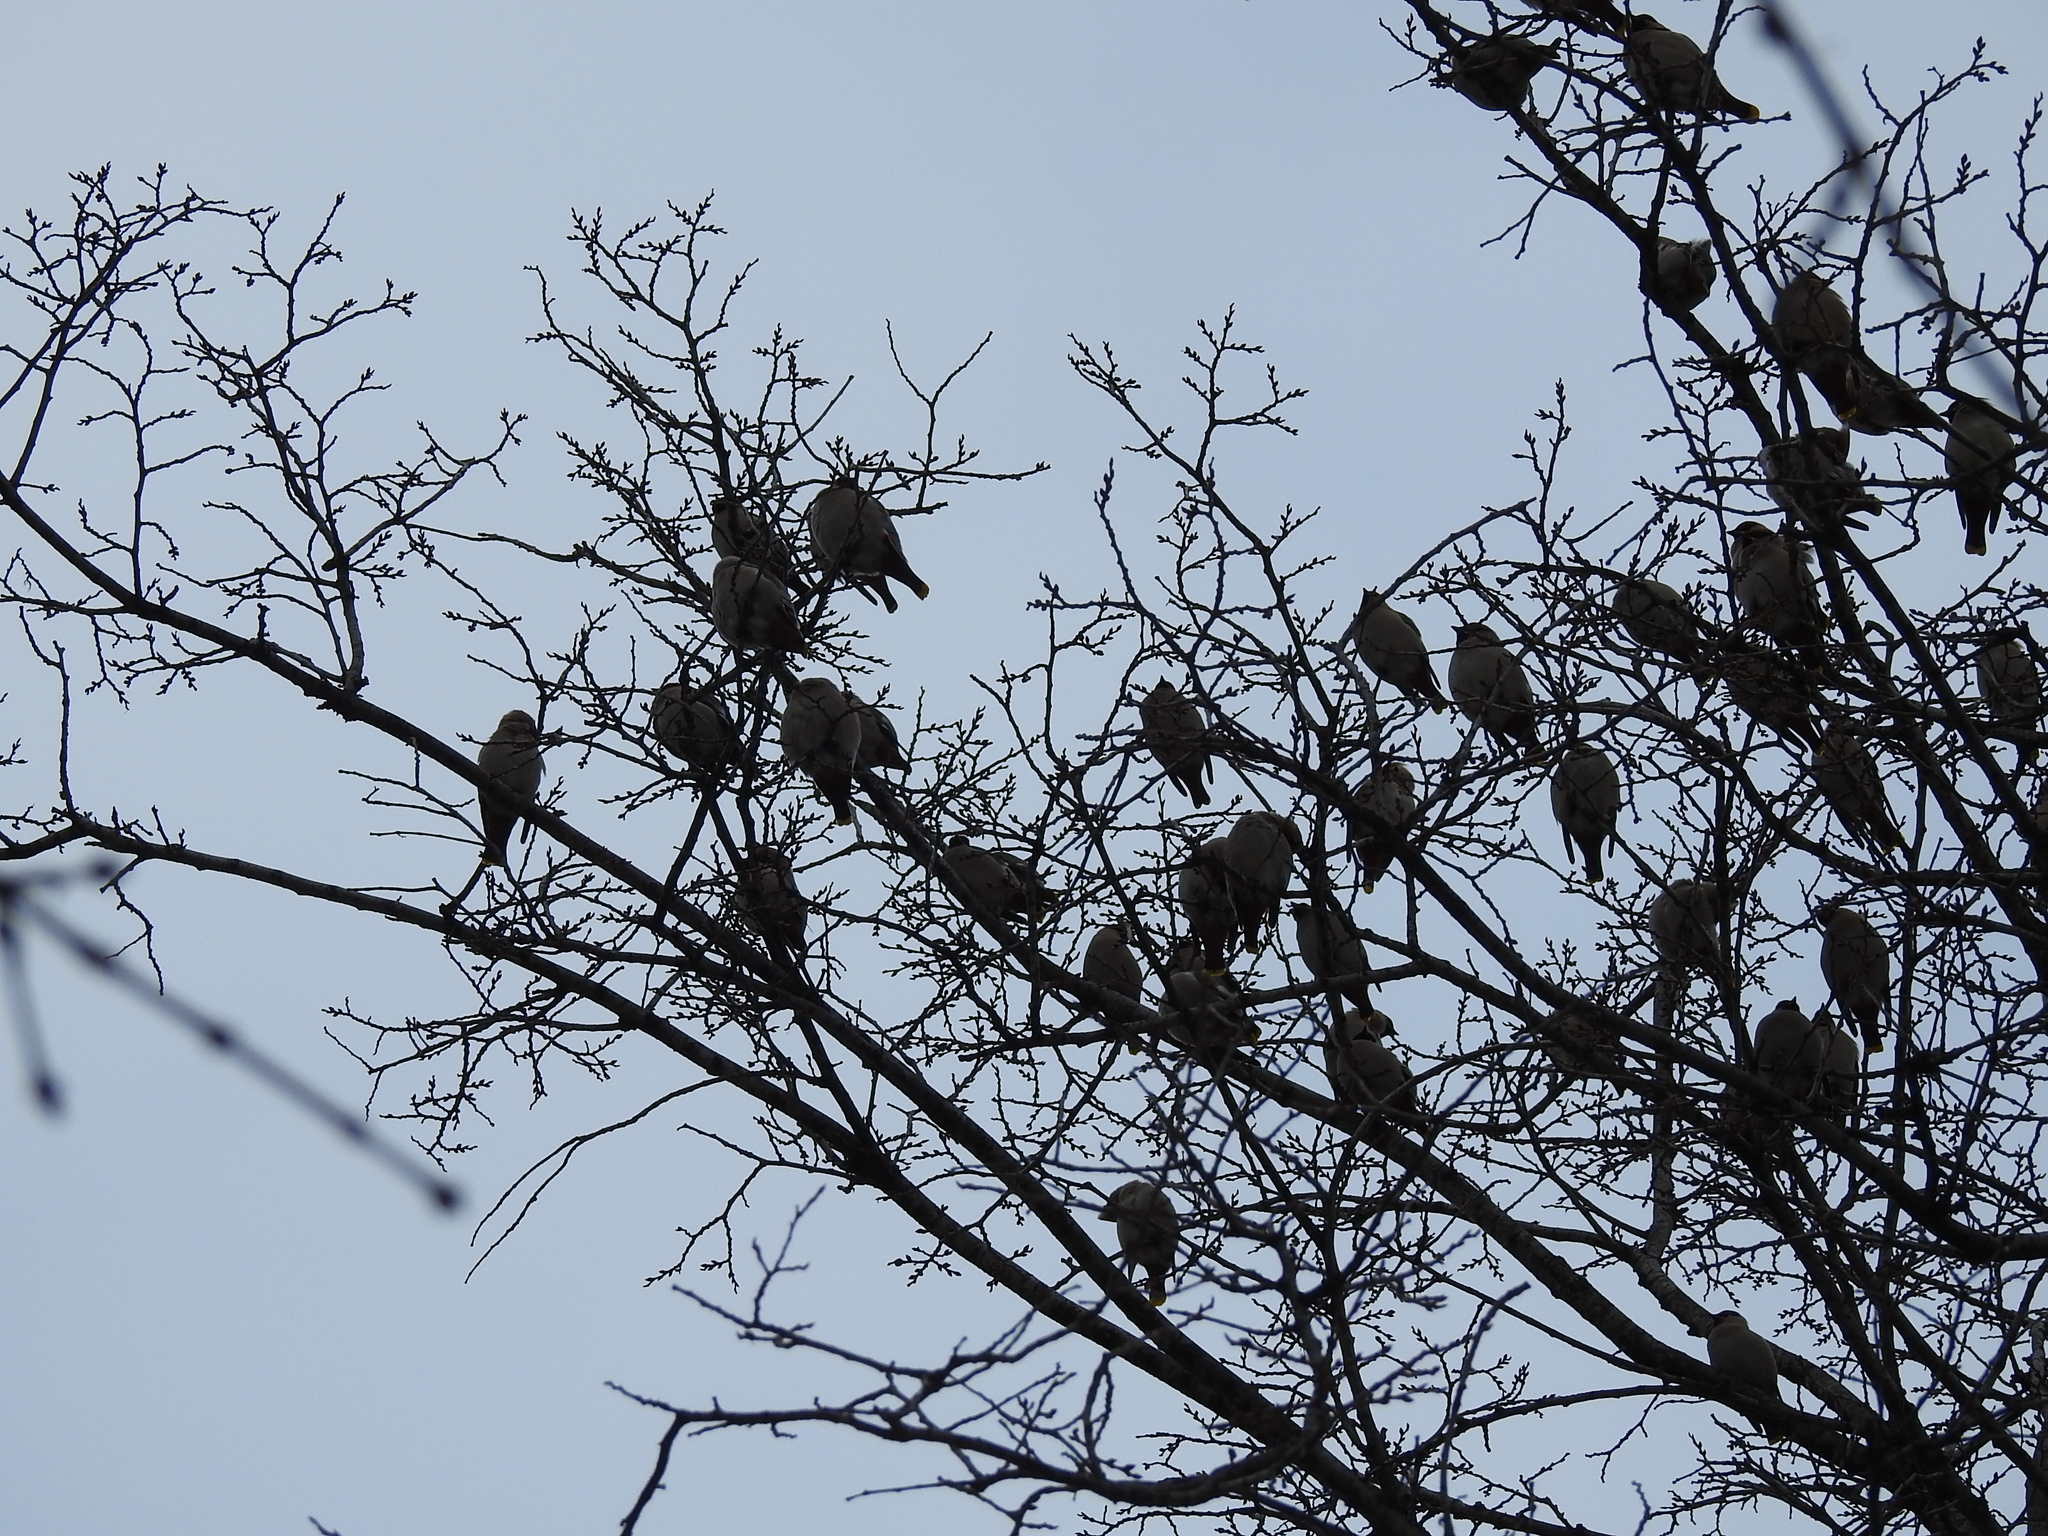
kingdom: Animalia
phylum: Chordata
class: Aves
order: Passeriformes
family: Bombycillidae
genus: Bombycilla
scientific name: Bombycilla garrulus
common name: Bohemian waxwing
